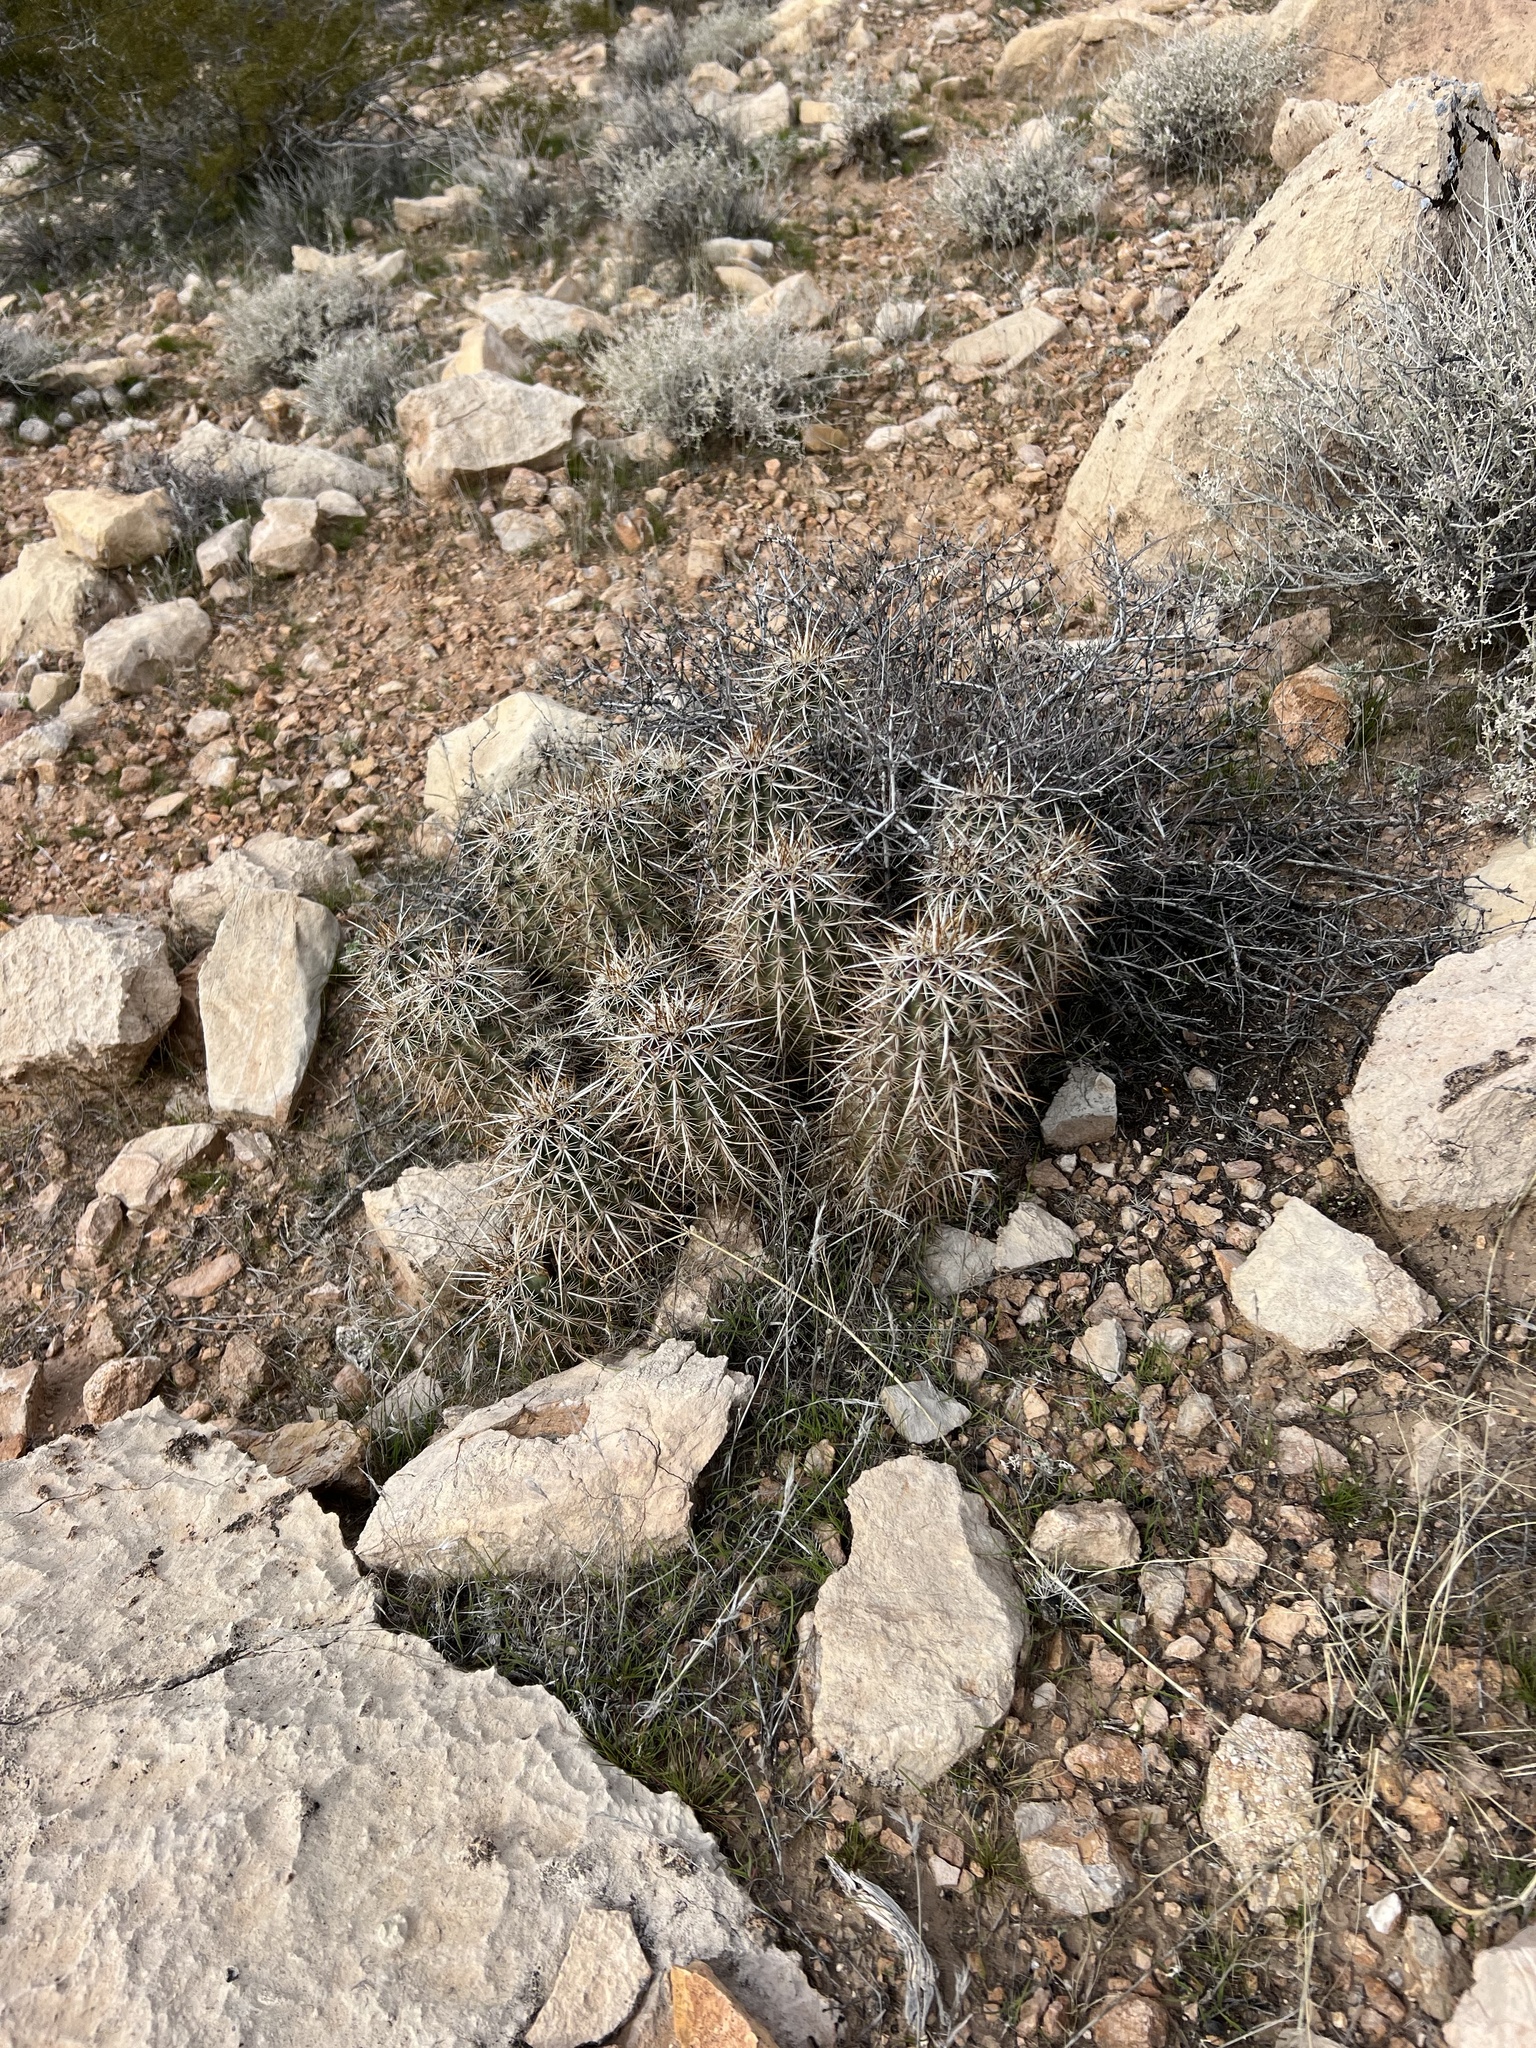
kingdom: Plantae
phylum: Tracheophyta
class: Magnoliopsida
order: Caryophyllales
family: Cactaceae
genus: Echinocereus
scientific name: Echinocereus engelmannii
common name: Engelmann's hedgehog cactus
